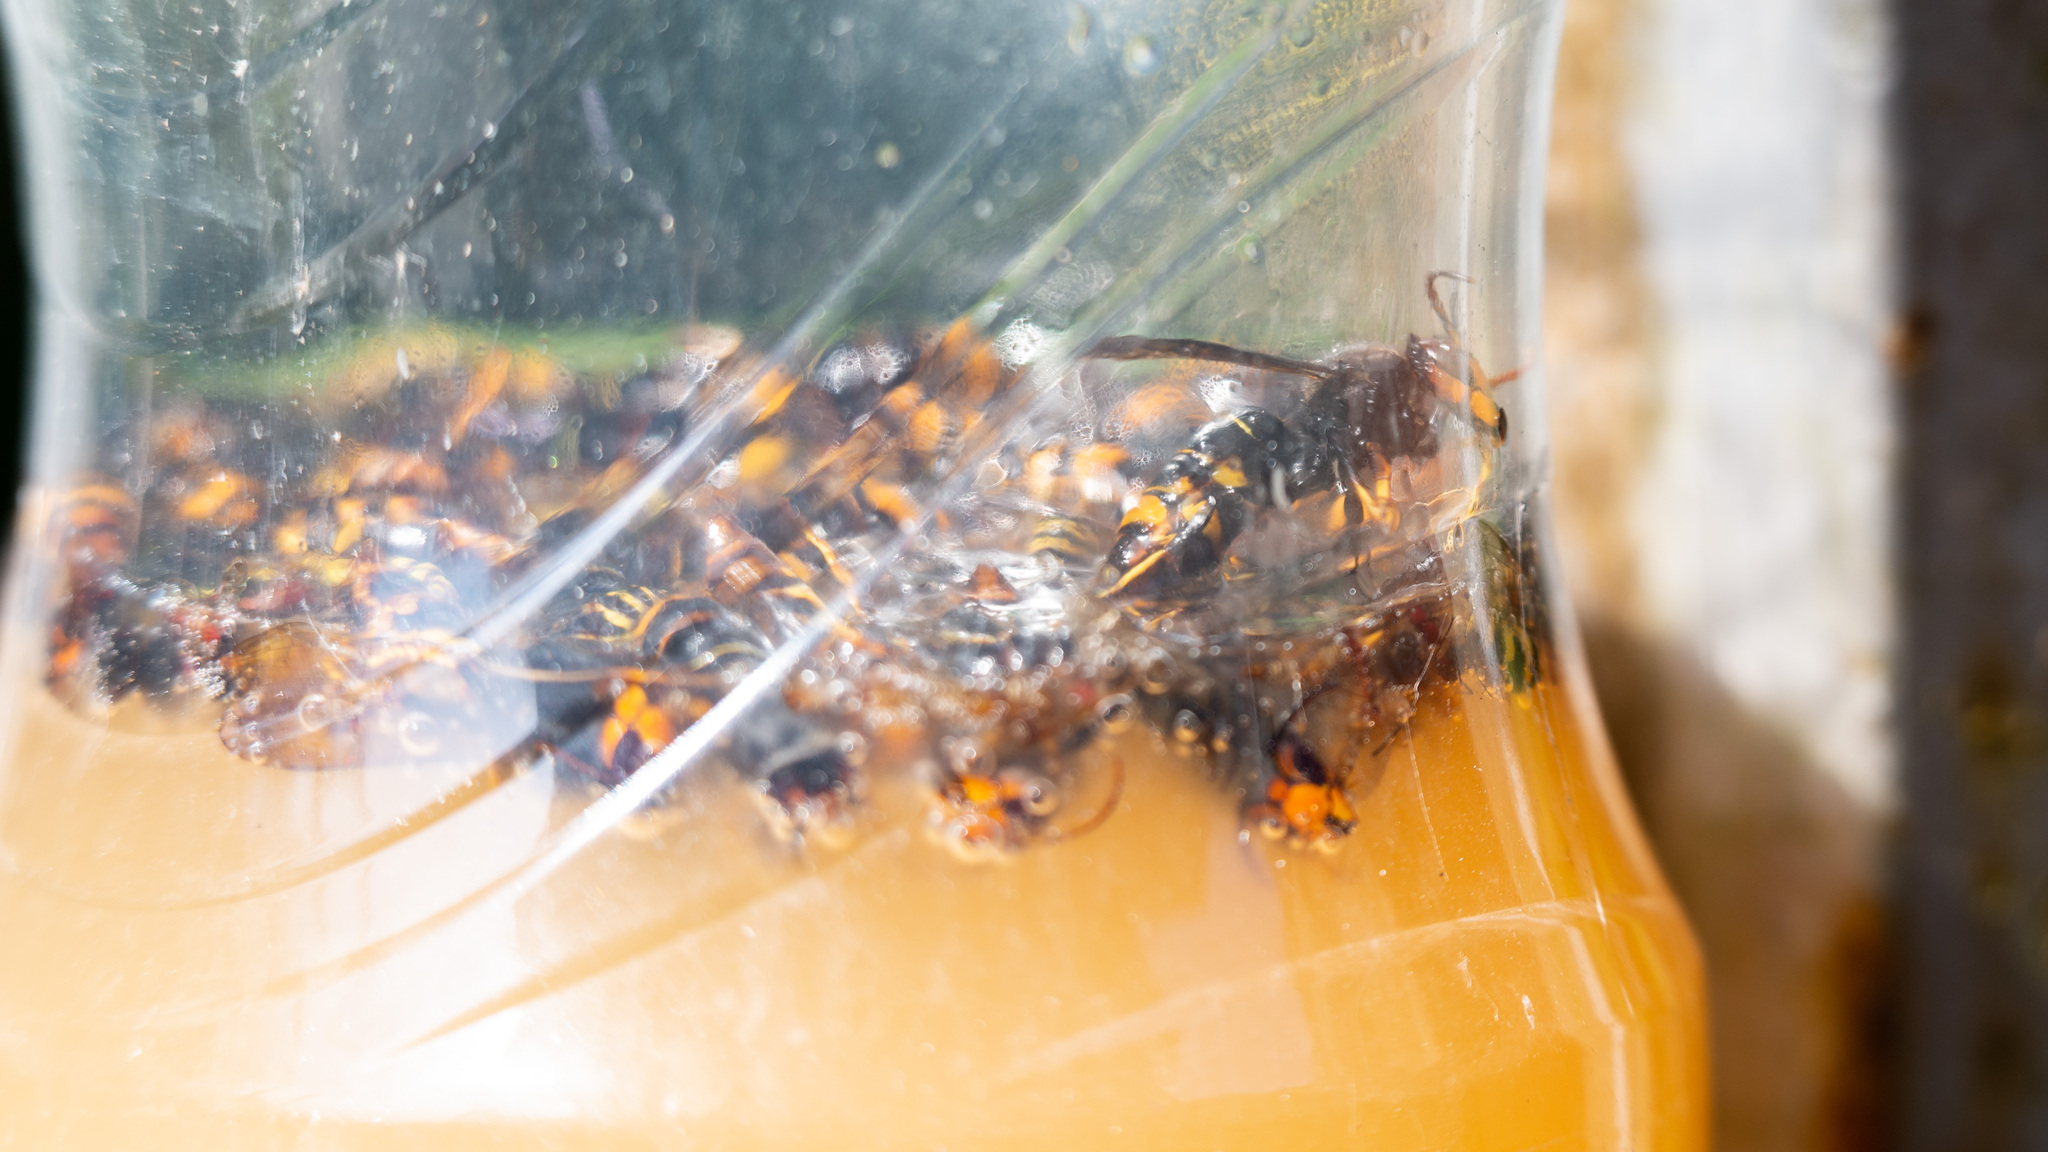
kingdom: Animalia
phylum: Arthropoda
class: Insecta
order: Hymenoptera
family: Vespidae
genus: Vespa
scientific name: Vespa velutina
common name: Asian hornet
